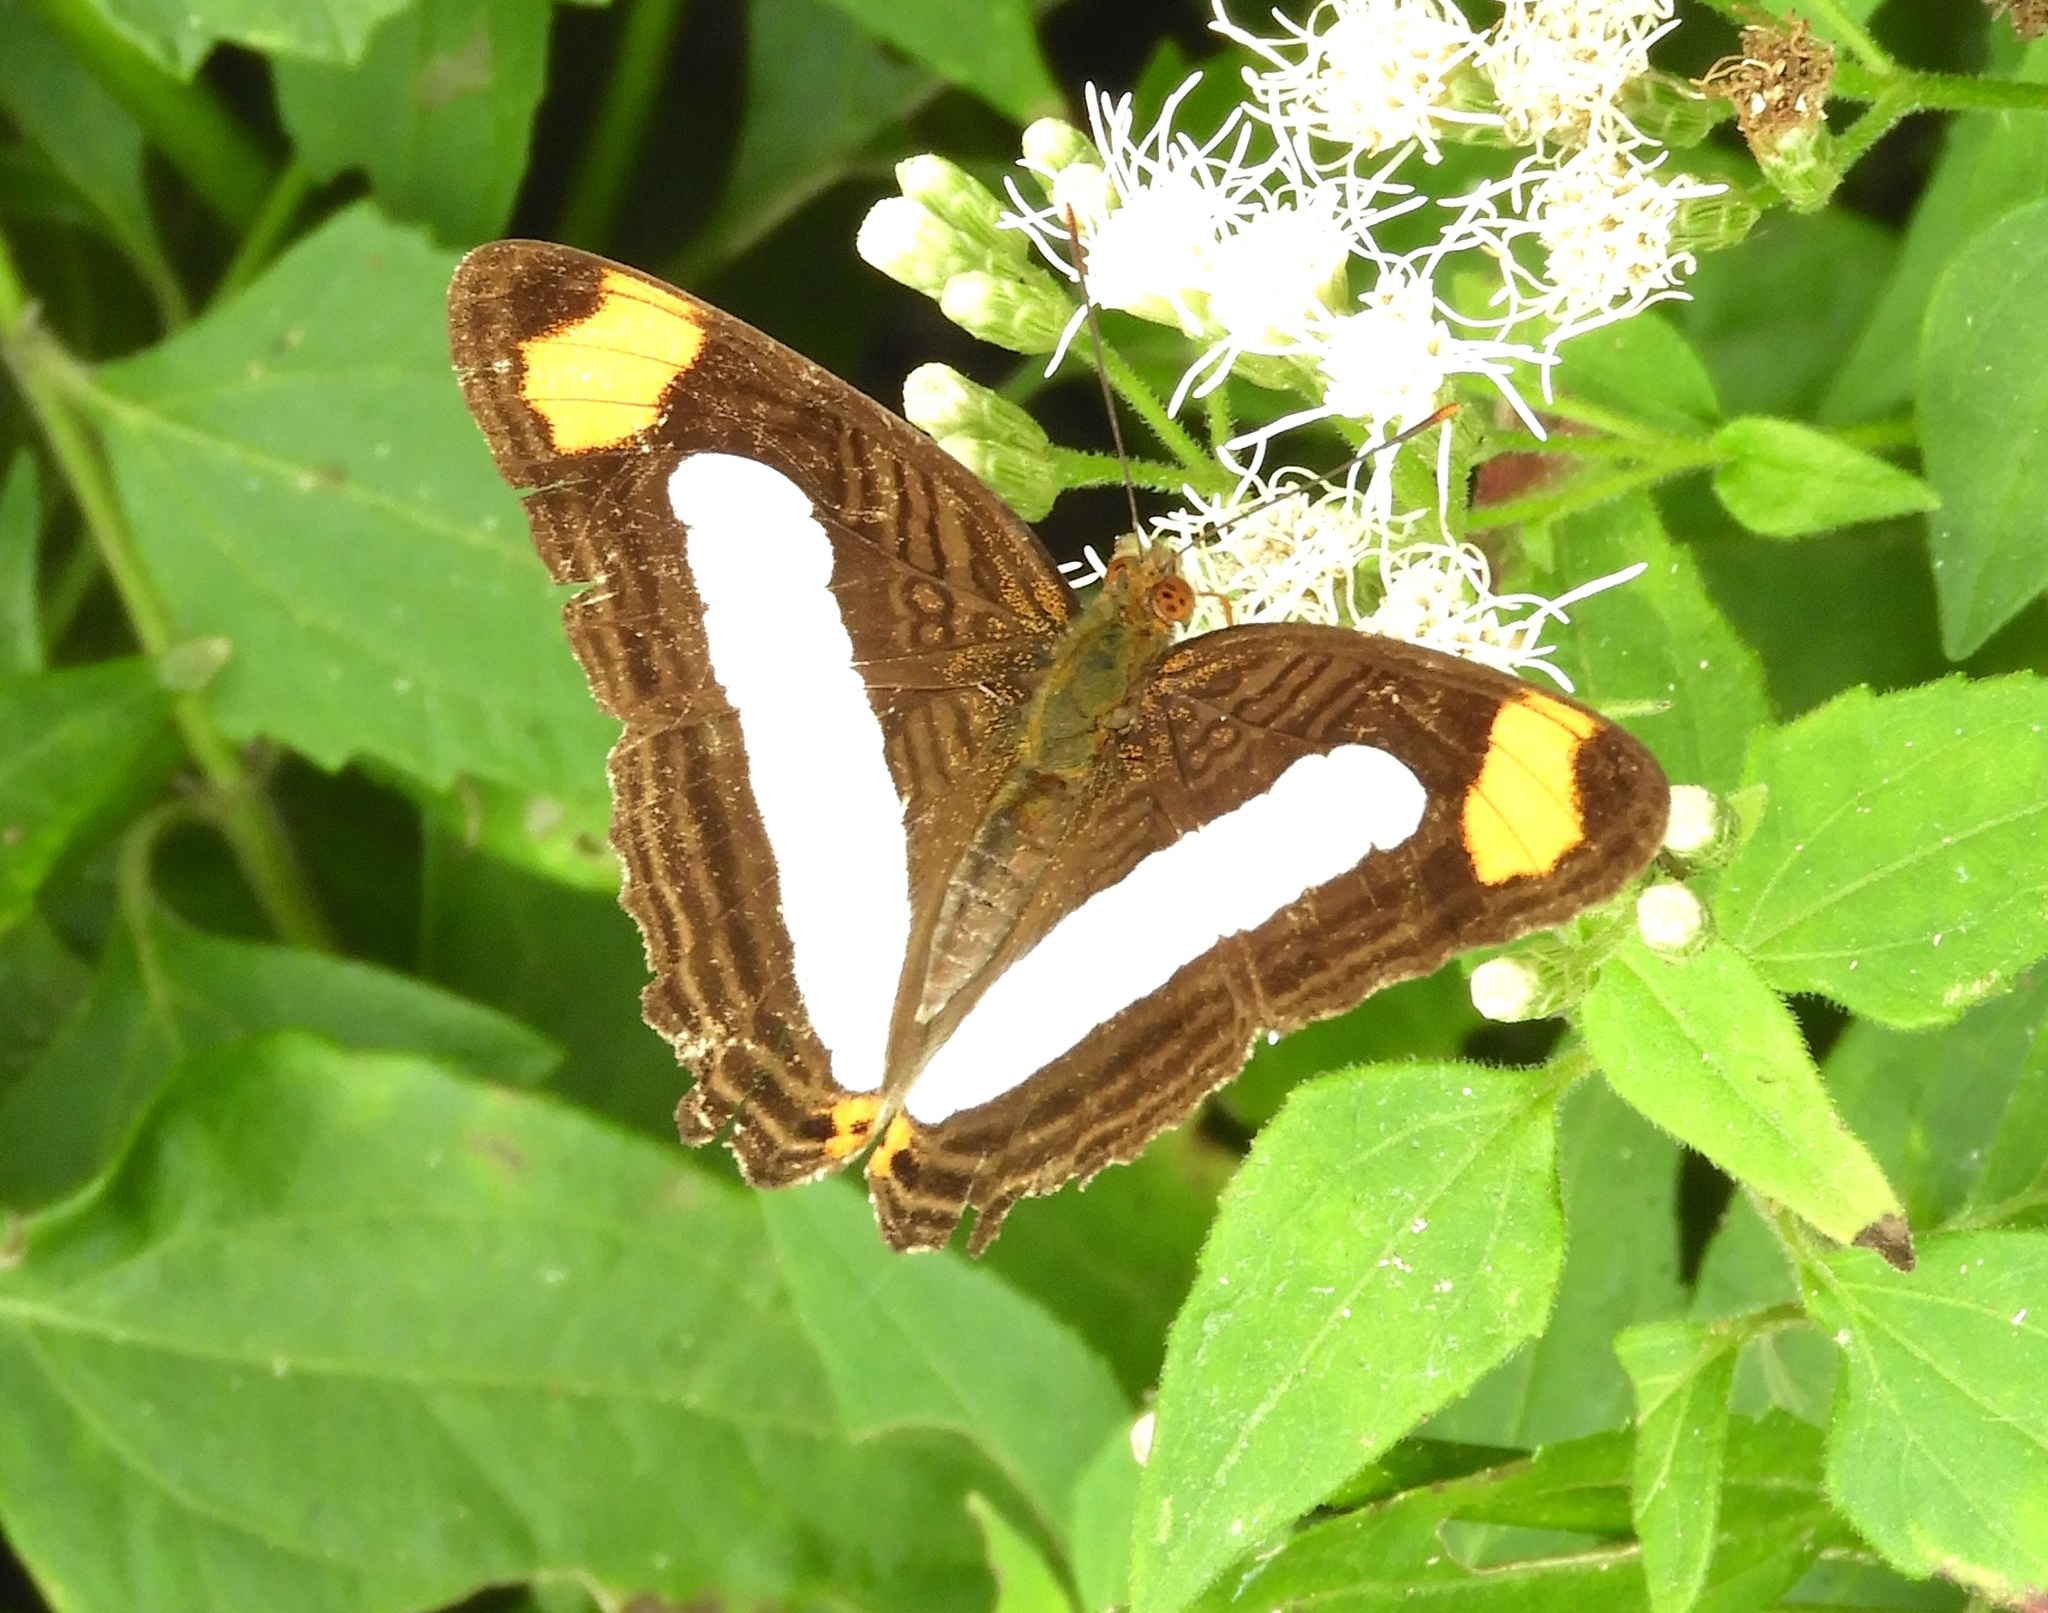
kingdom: Animalia
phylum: Arthropoda
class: Insecta
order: Lepidoptera
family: Nymphalidae
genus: Limenitis
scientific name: Limenitis iphiclus
